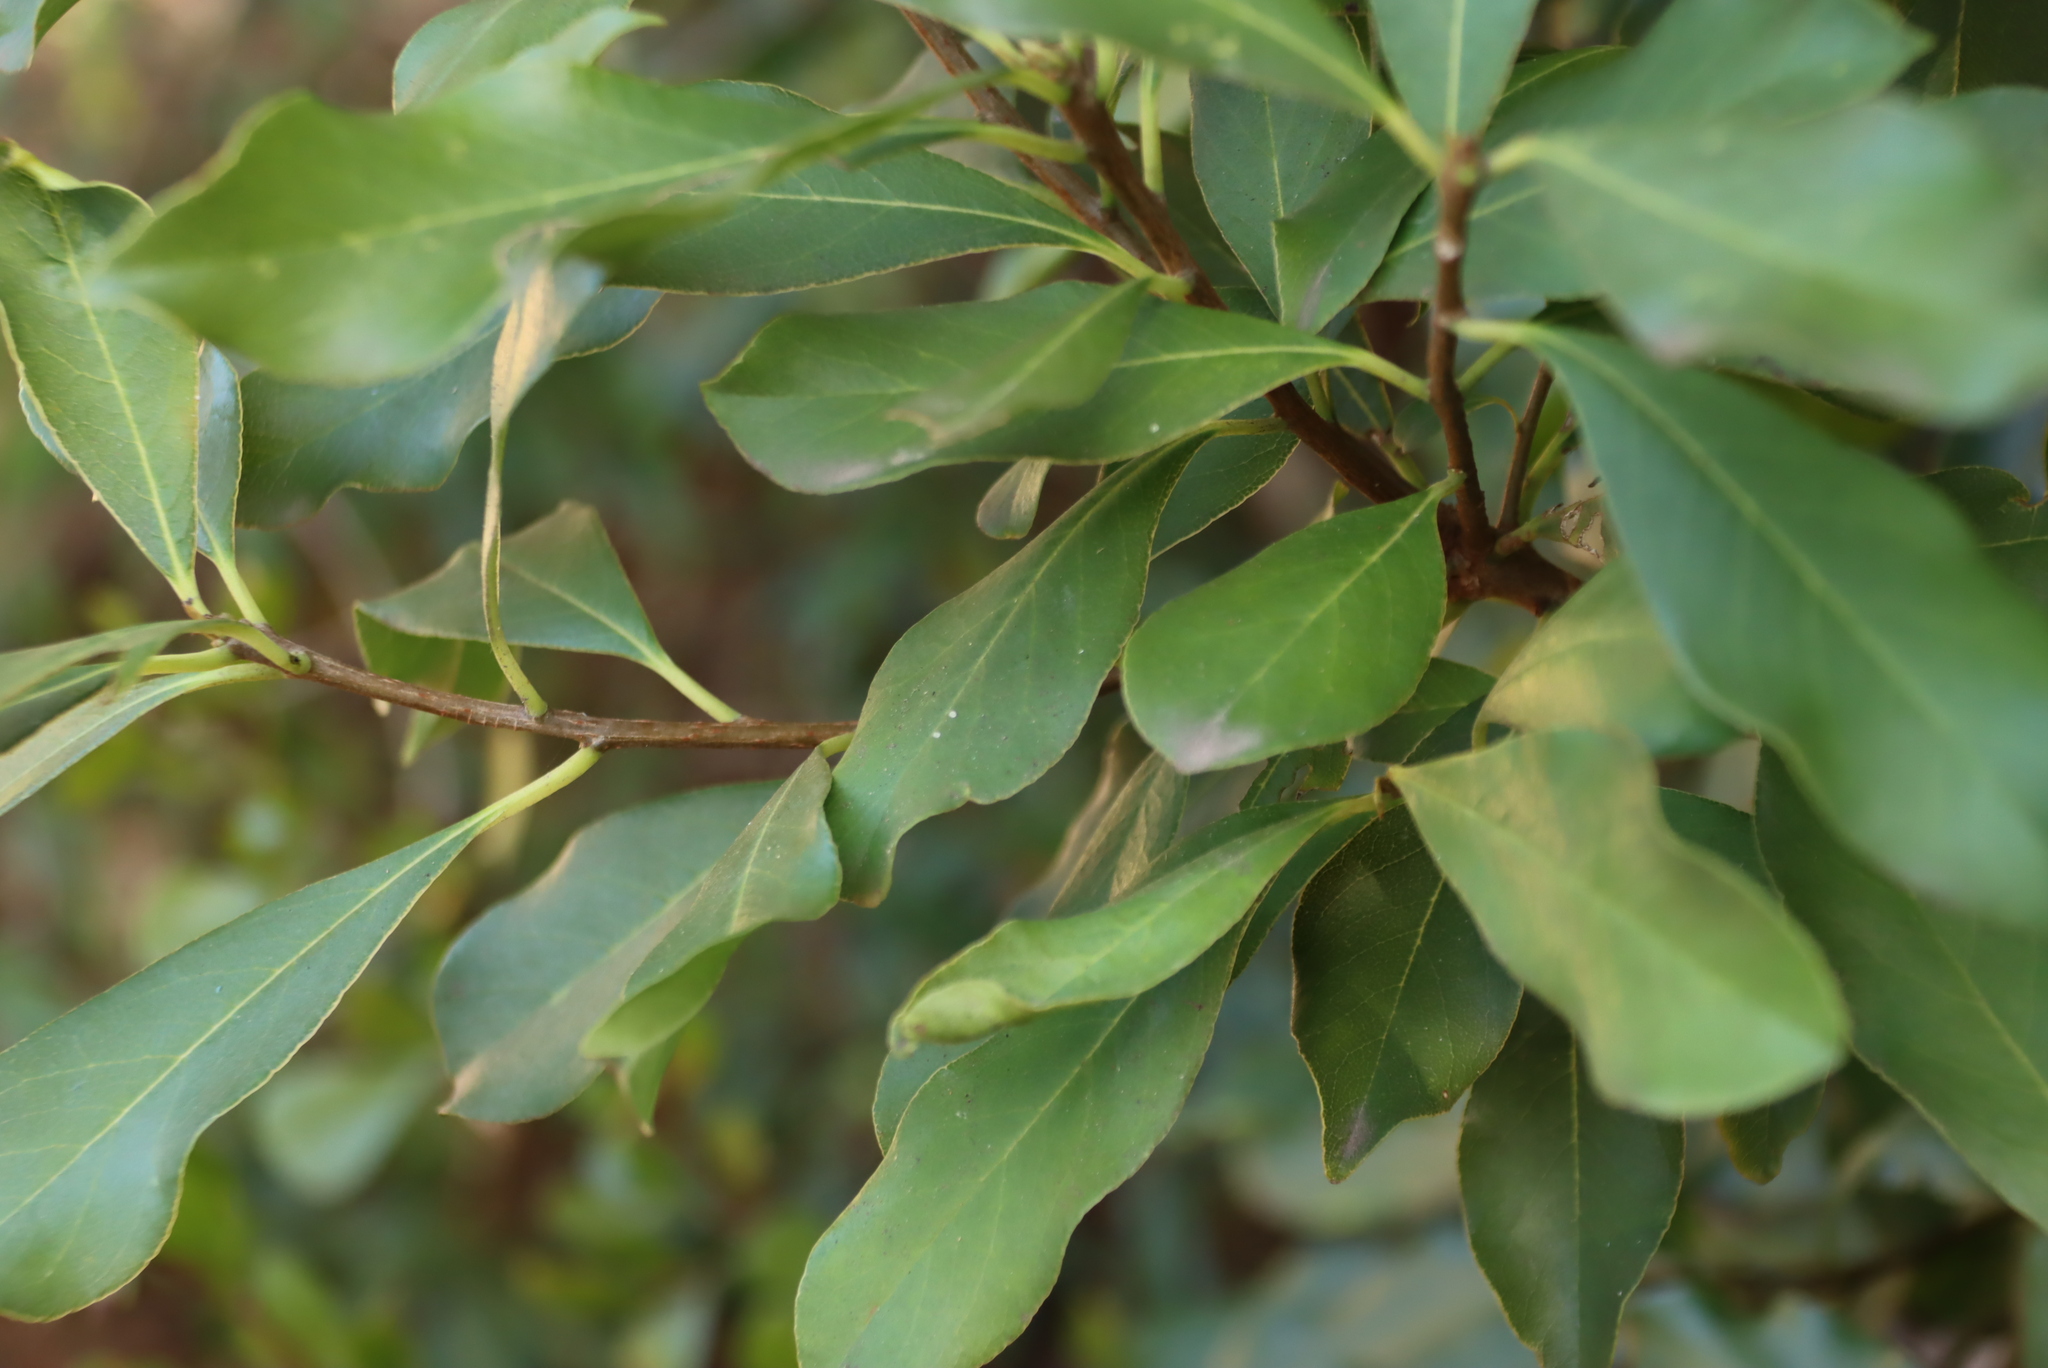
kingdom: Plantae
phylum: Tracheophyta
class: Magnoliopsida
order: Apiales
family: Pittosporaceae
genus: Pittosporum
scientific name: Pittosporum undulatum
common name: Australian cheesewood
